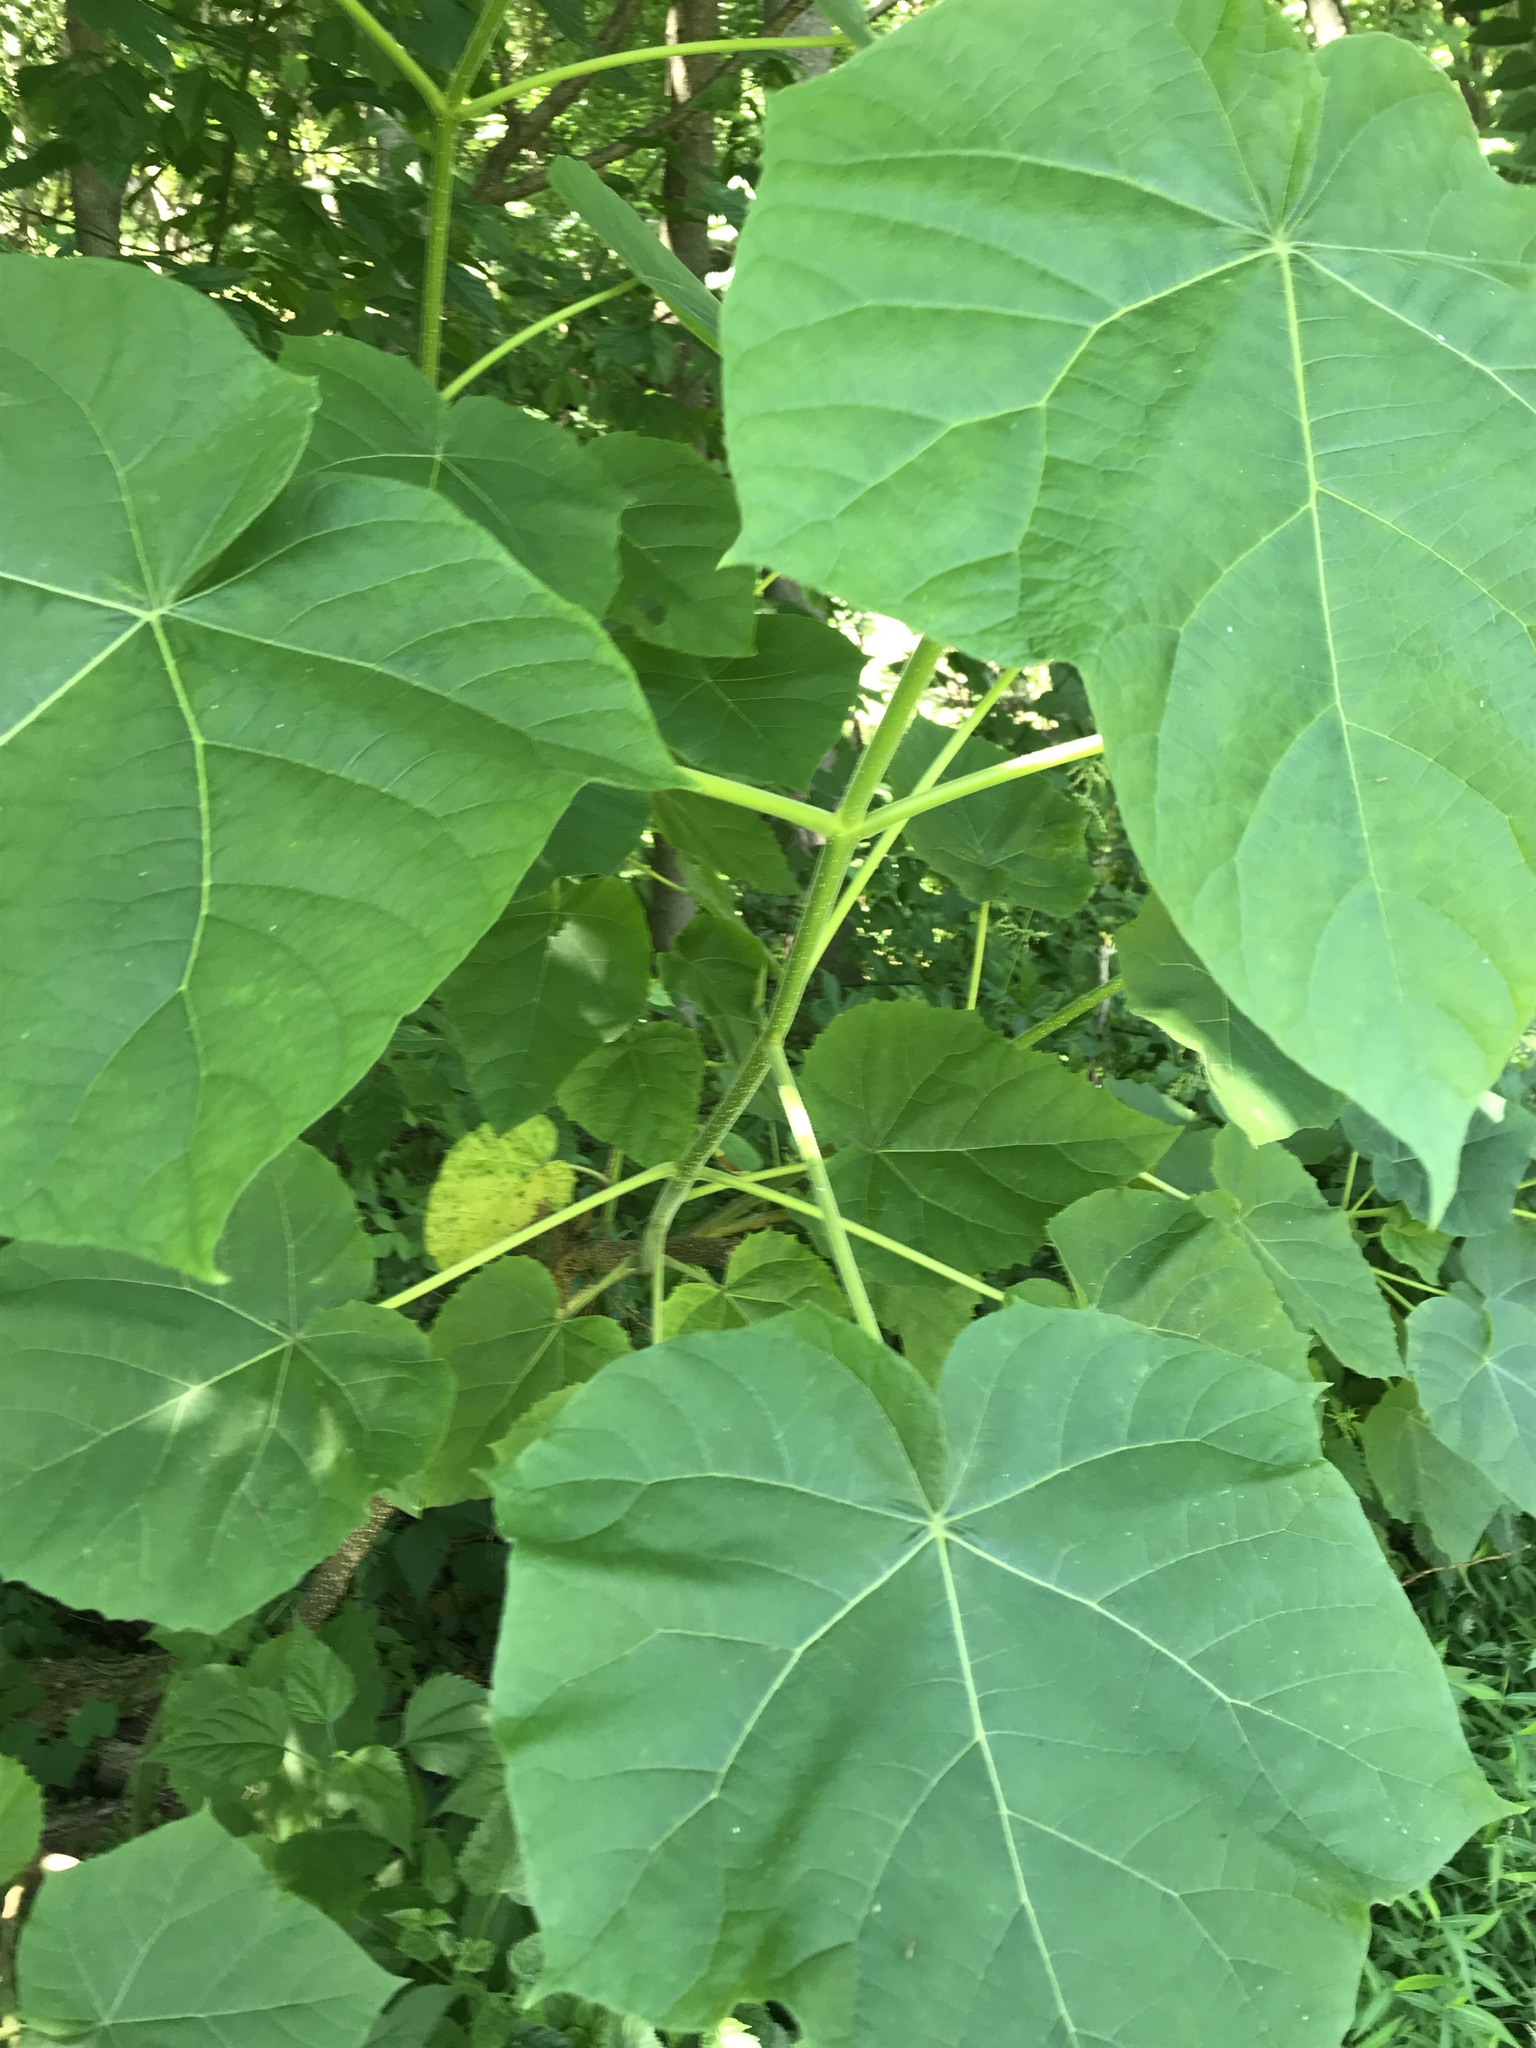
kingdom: Plantae
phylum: Tracheophyta
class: Magnoliopsida
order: Lamiales
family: Paulowniaceae
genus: Paulownia
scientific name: Paulownia tomentosa
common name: Foxglove-tree
